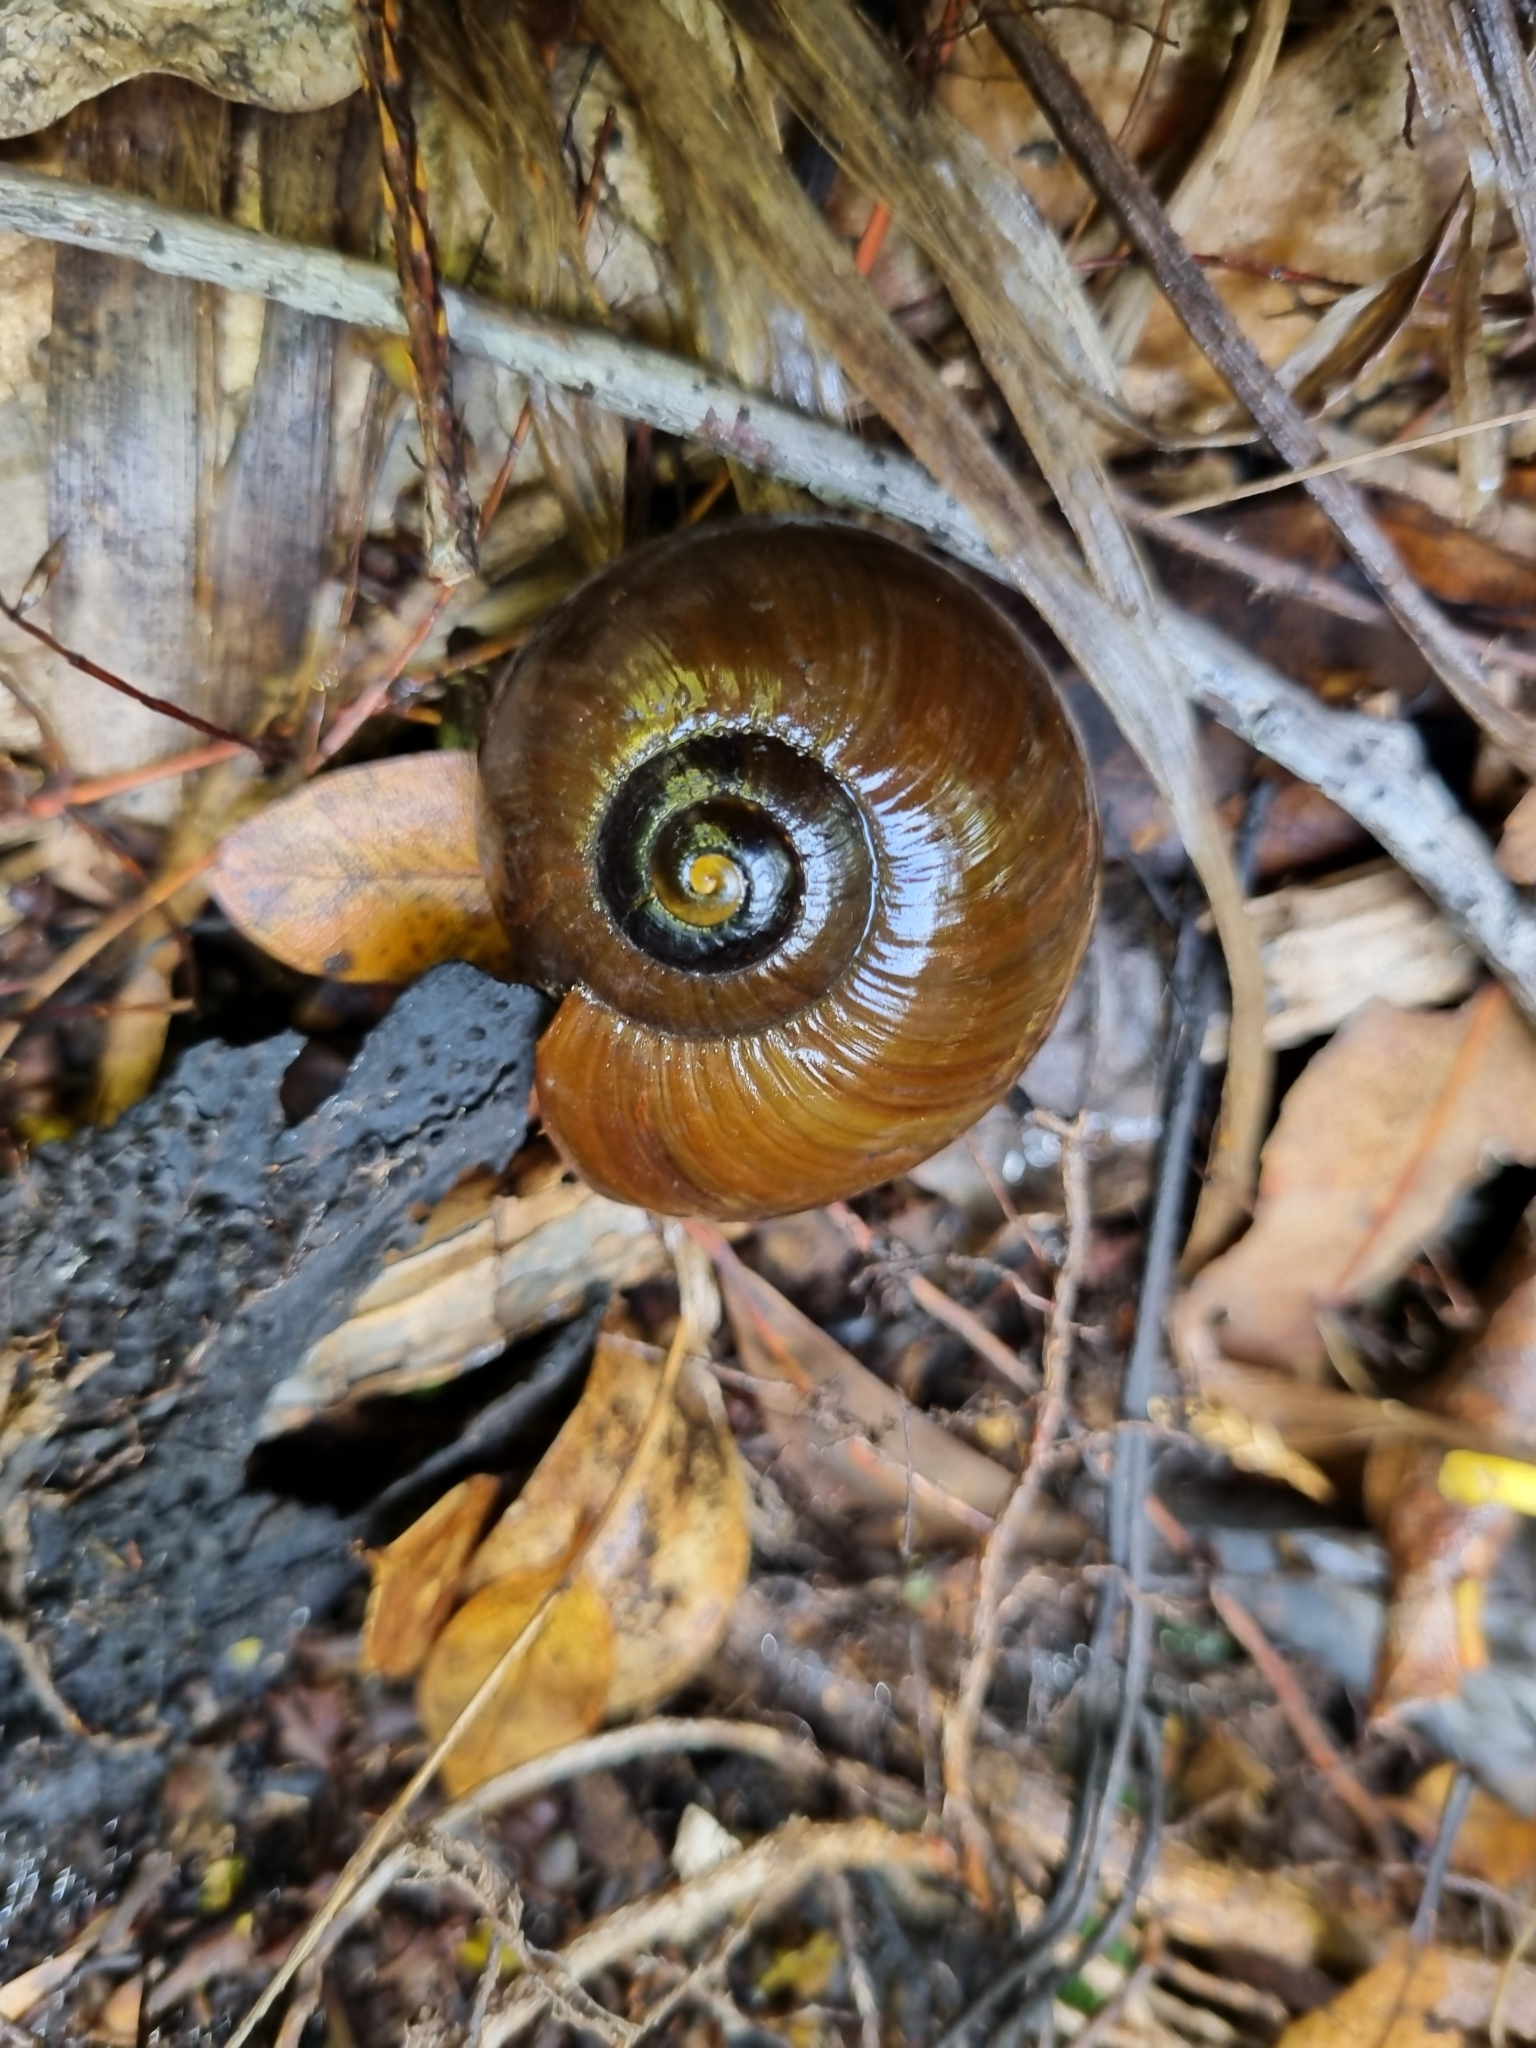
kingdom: Animalia
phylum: Mollusca
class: Gastropoda
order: Stylommatophora
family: Rhytididae
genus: Powelliphanta
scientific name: Powelliphanta superba
